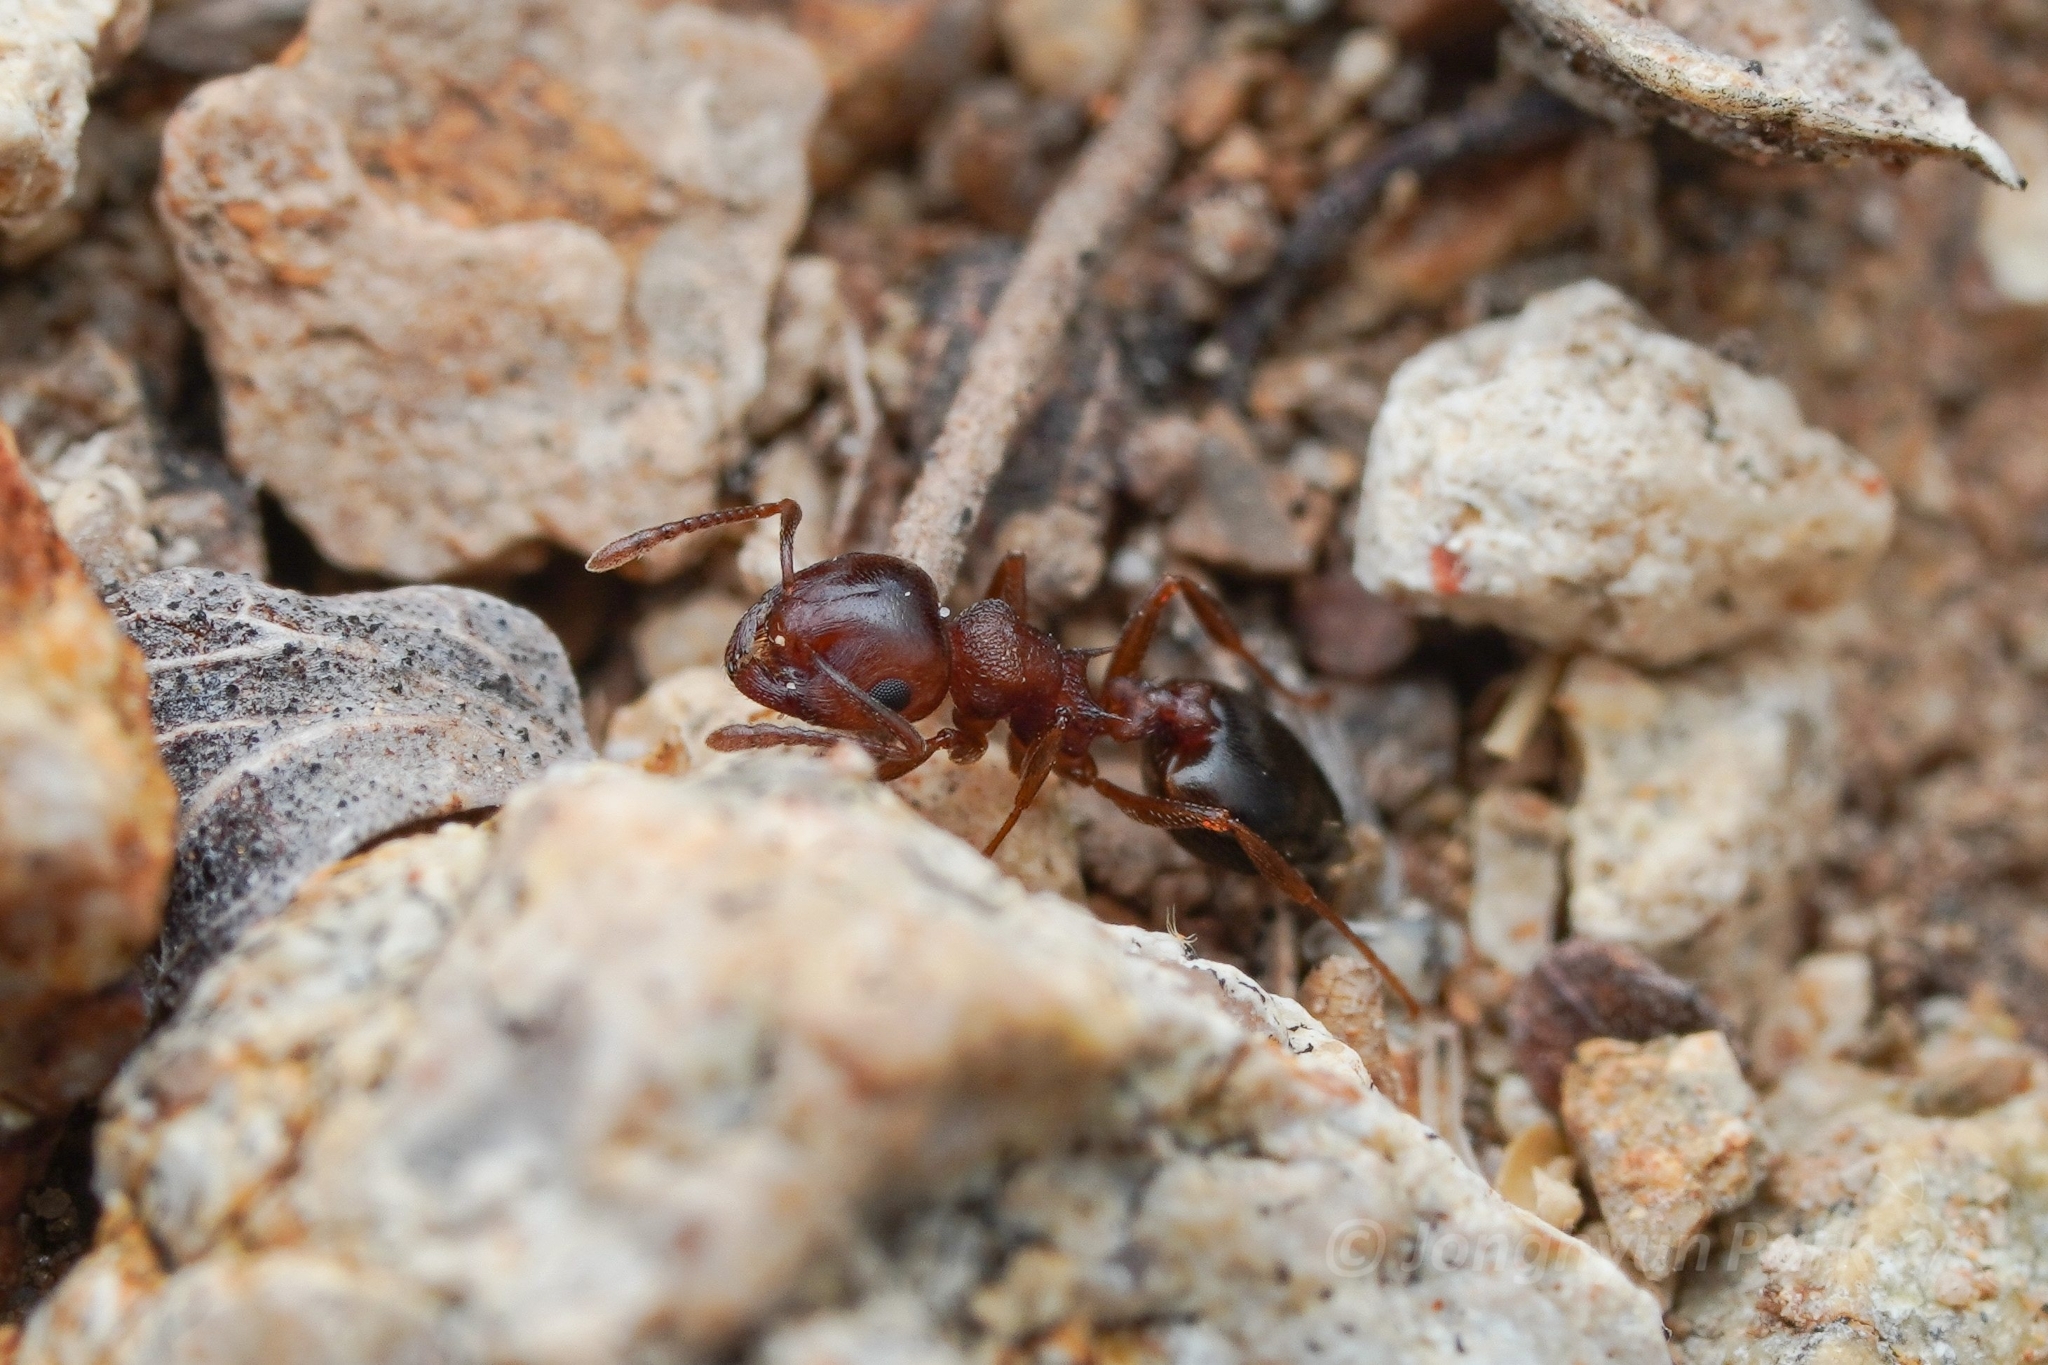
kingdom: Animalia
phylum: Arthropoda
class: Insecta
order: Hymenoptera
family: Formicidae
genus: Crematogaster
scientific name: Crematogaster depilis
